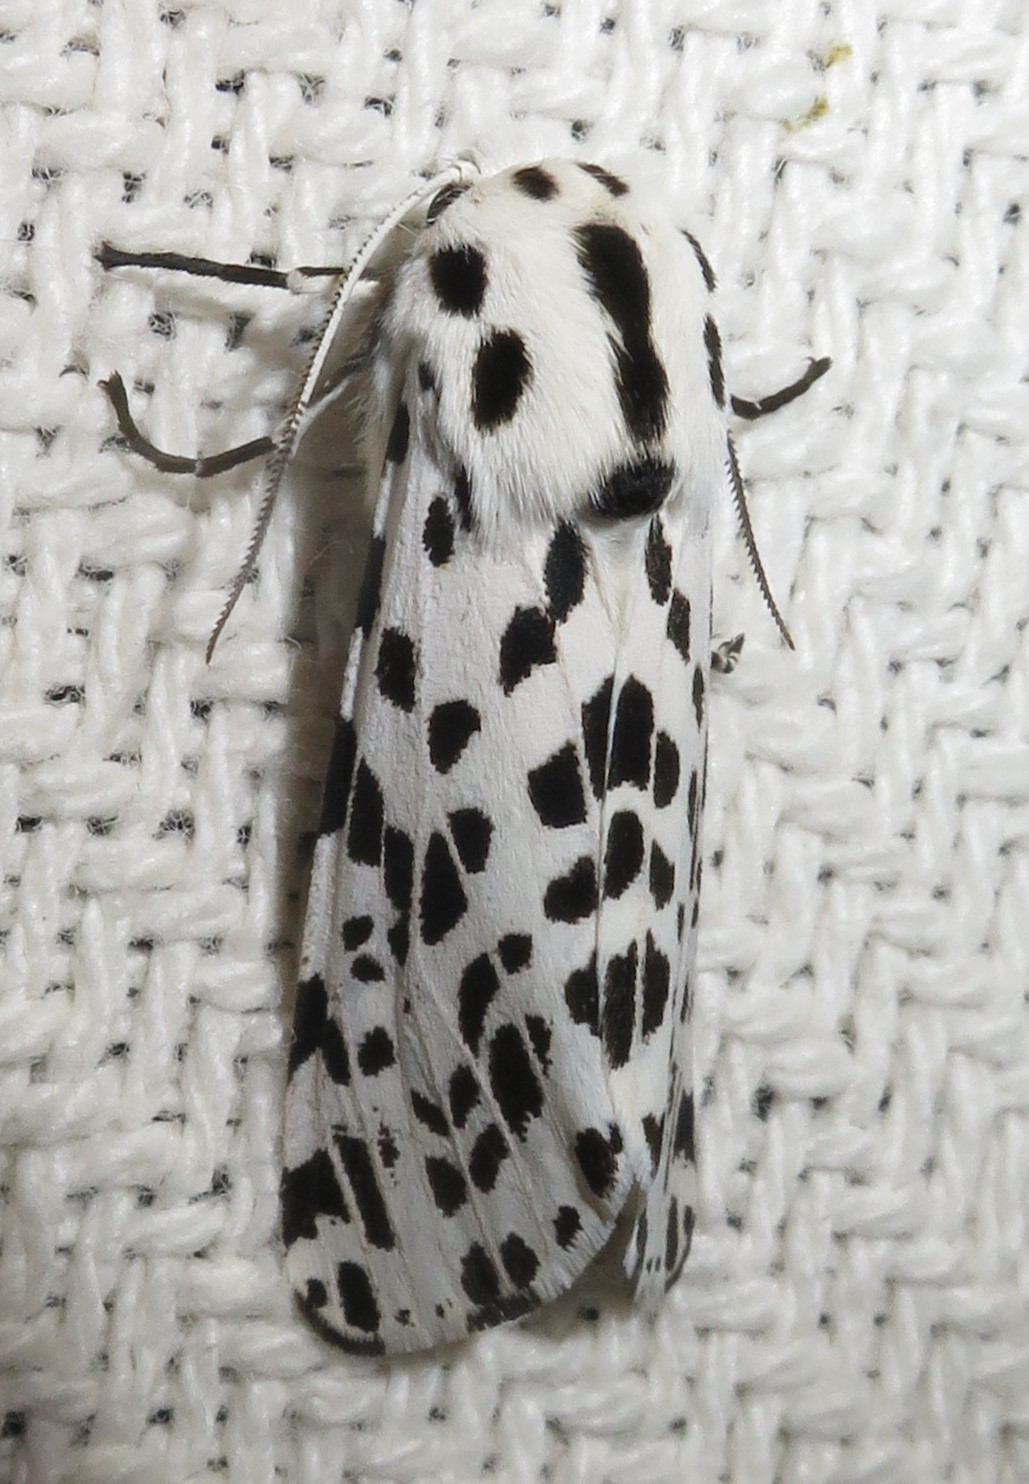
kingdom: Animalia
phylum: Arthropoda
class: Insecta
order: Lepidoptera
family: Erebidae
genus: Hypercompe
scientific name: Hypercompe permaculata
